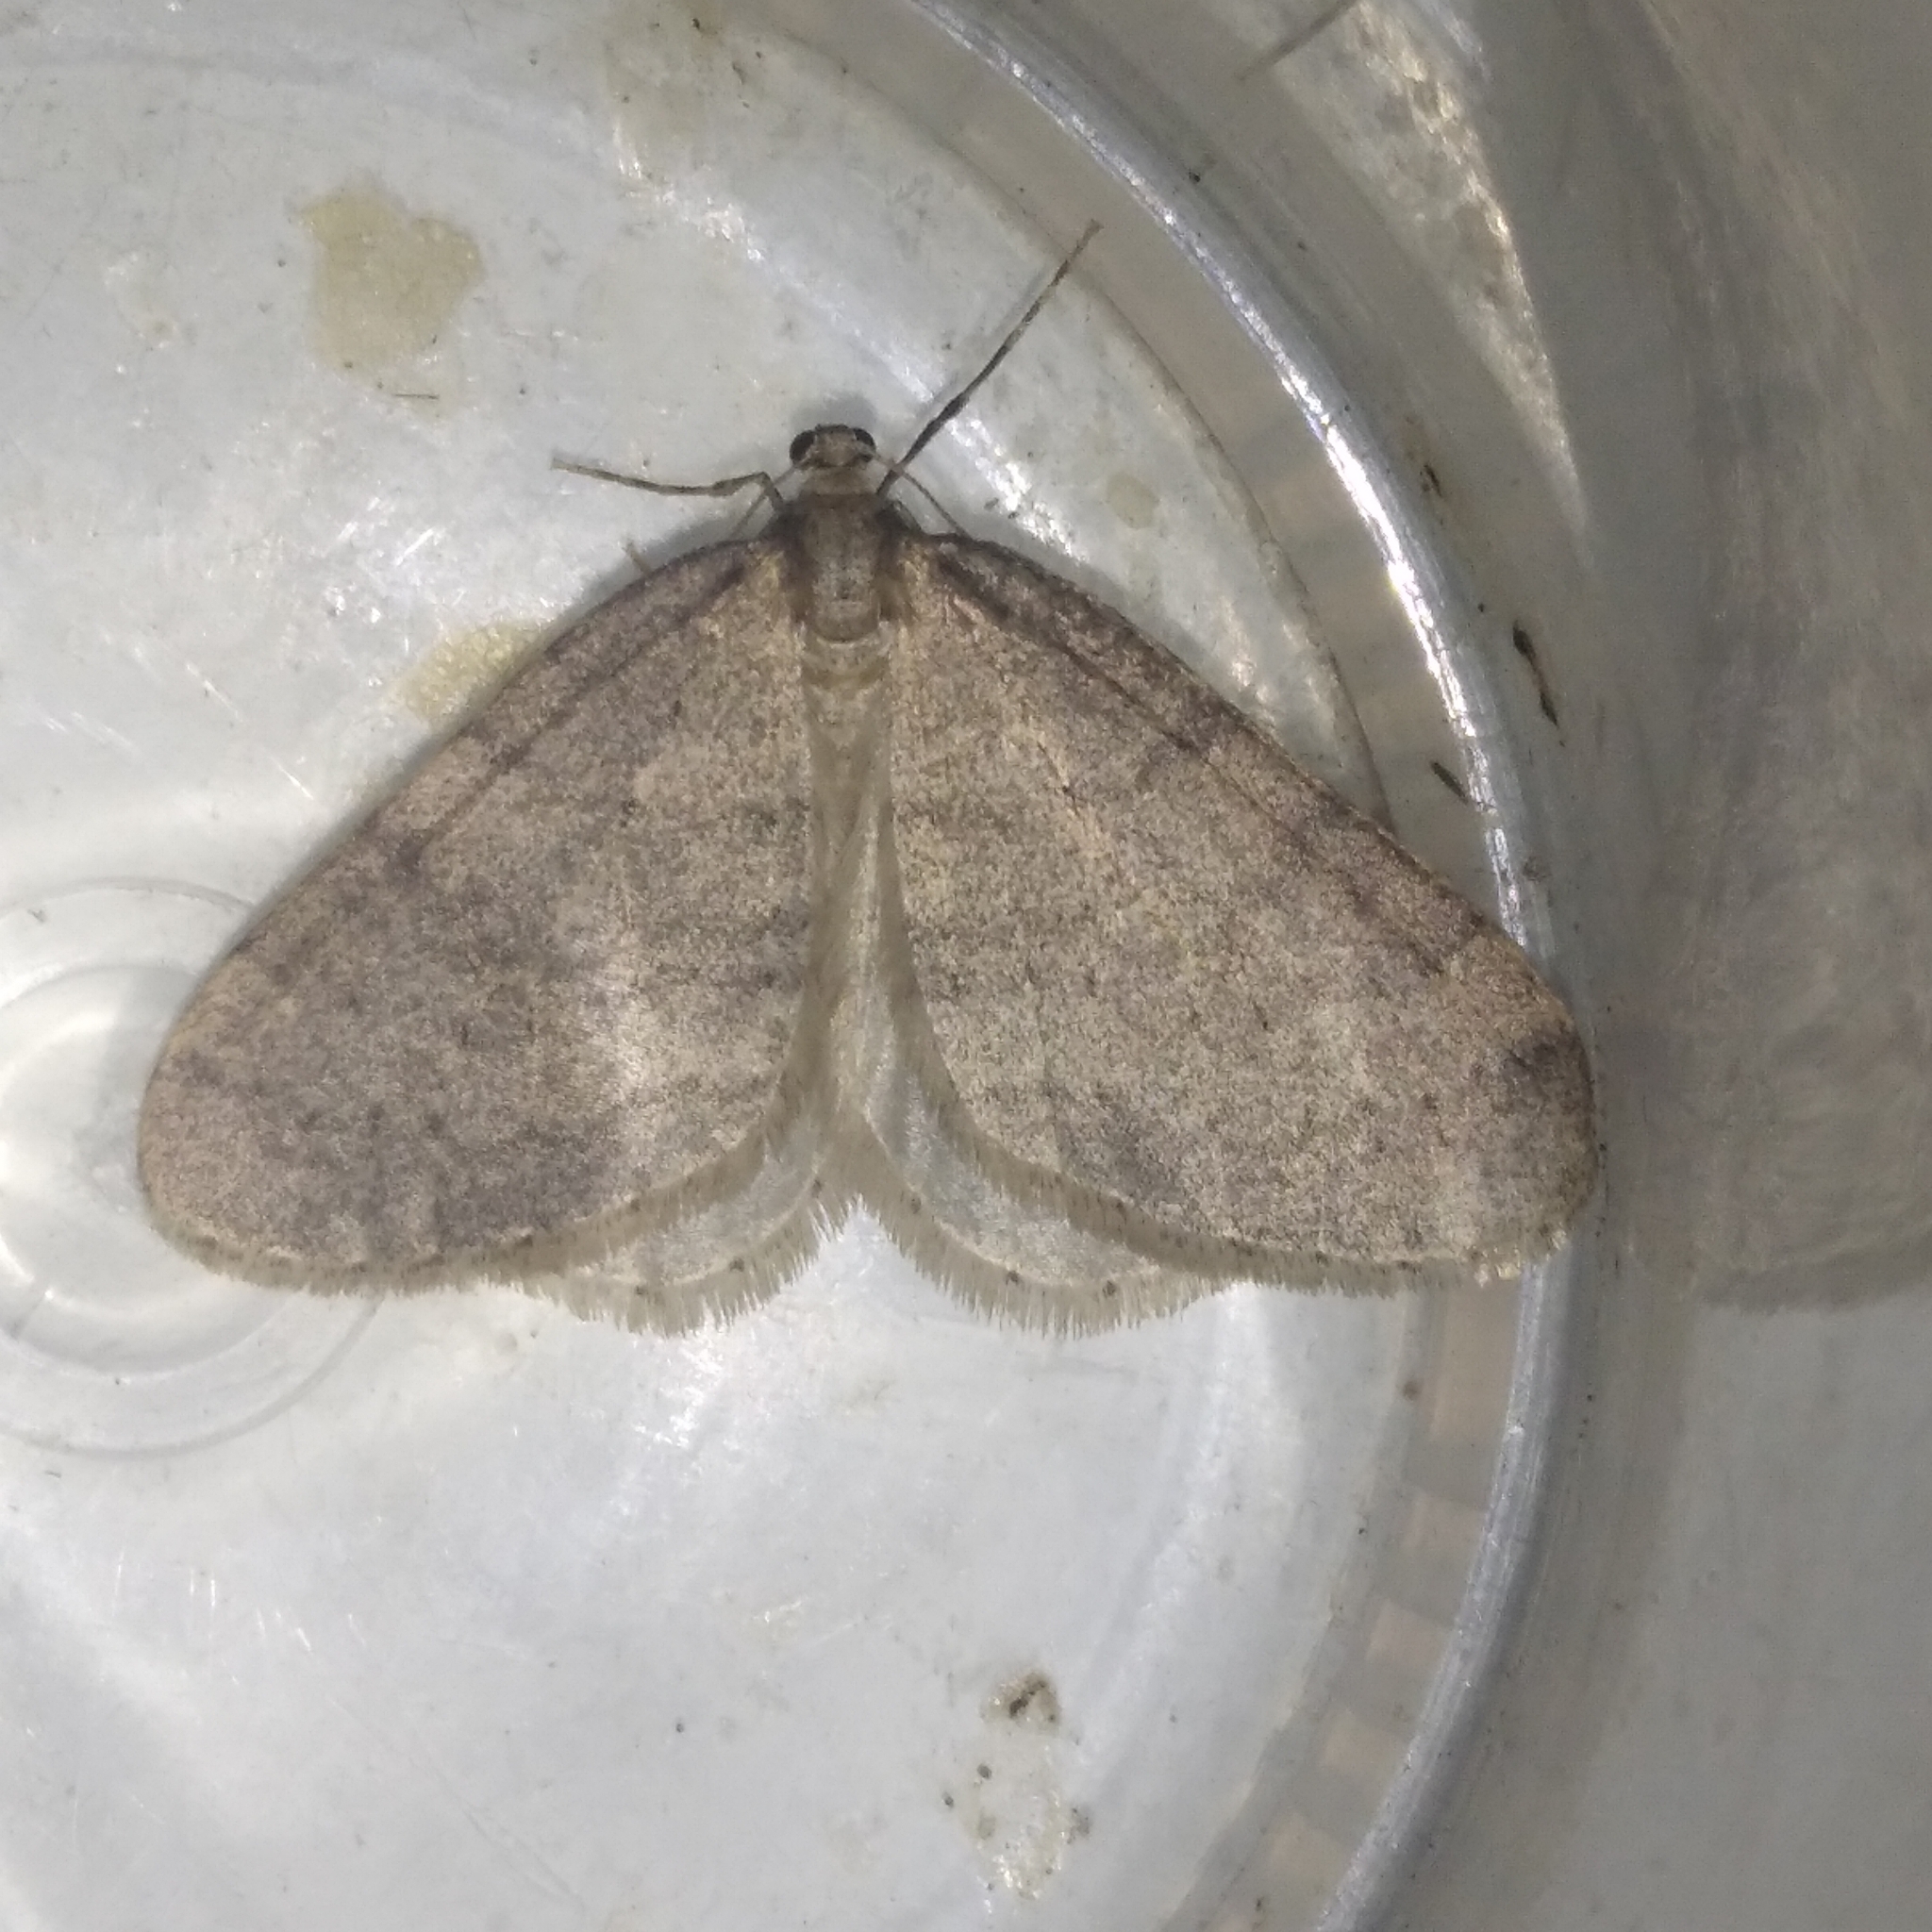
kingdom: Animalia
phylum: Arthropoda
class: Insecta
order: Lepidoptera
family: Geometridae
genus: Operophtera
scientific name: Operophtera brumata
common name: Winter moth
